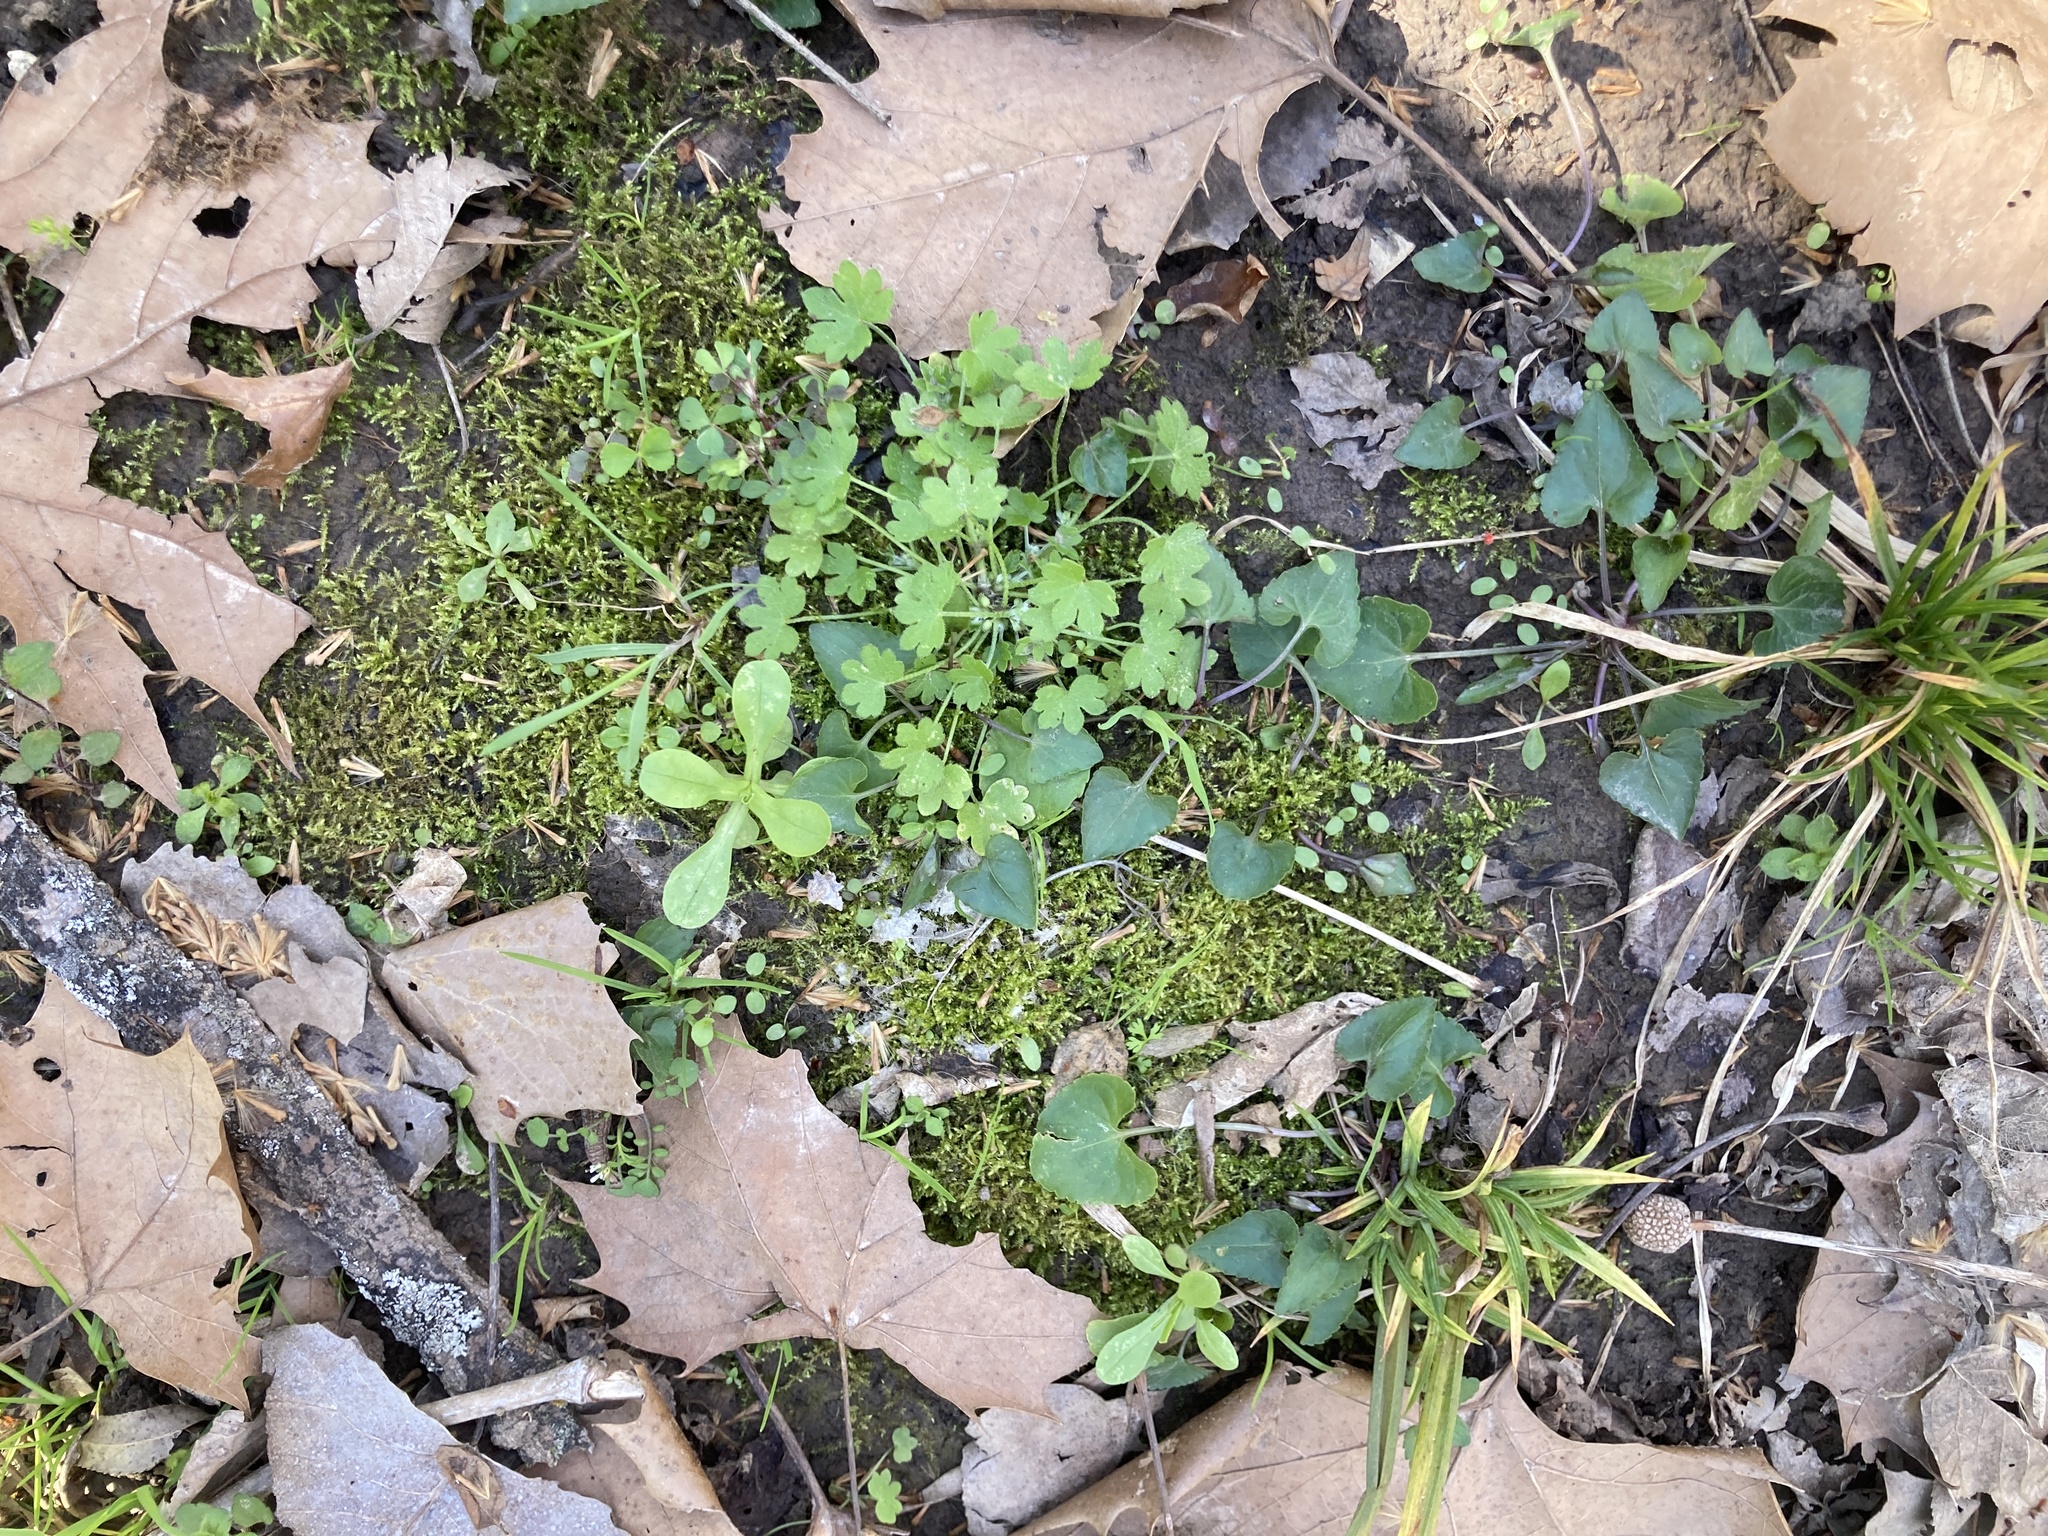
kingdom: Plantae
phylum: Tracheophyta
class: Magnoliopsida
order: Apiales
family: Apiaceae
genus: Bowlesia
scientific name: Bowlesia incana
